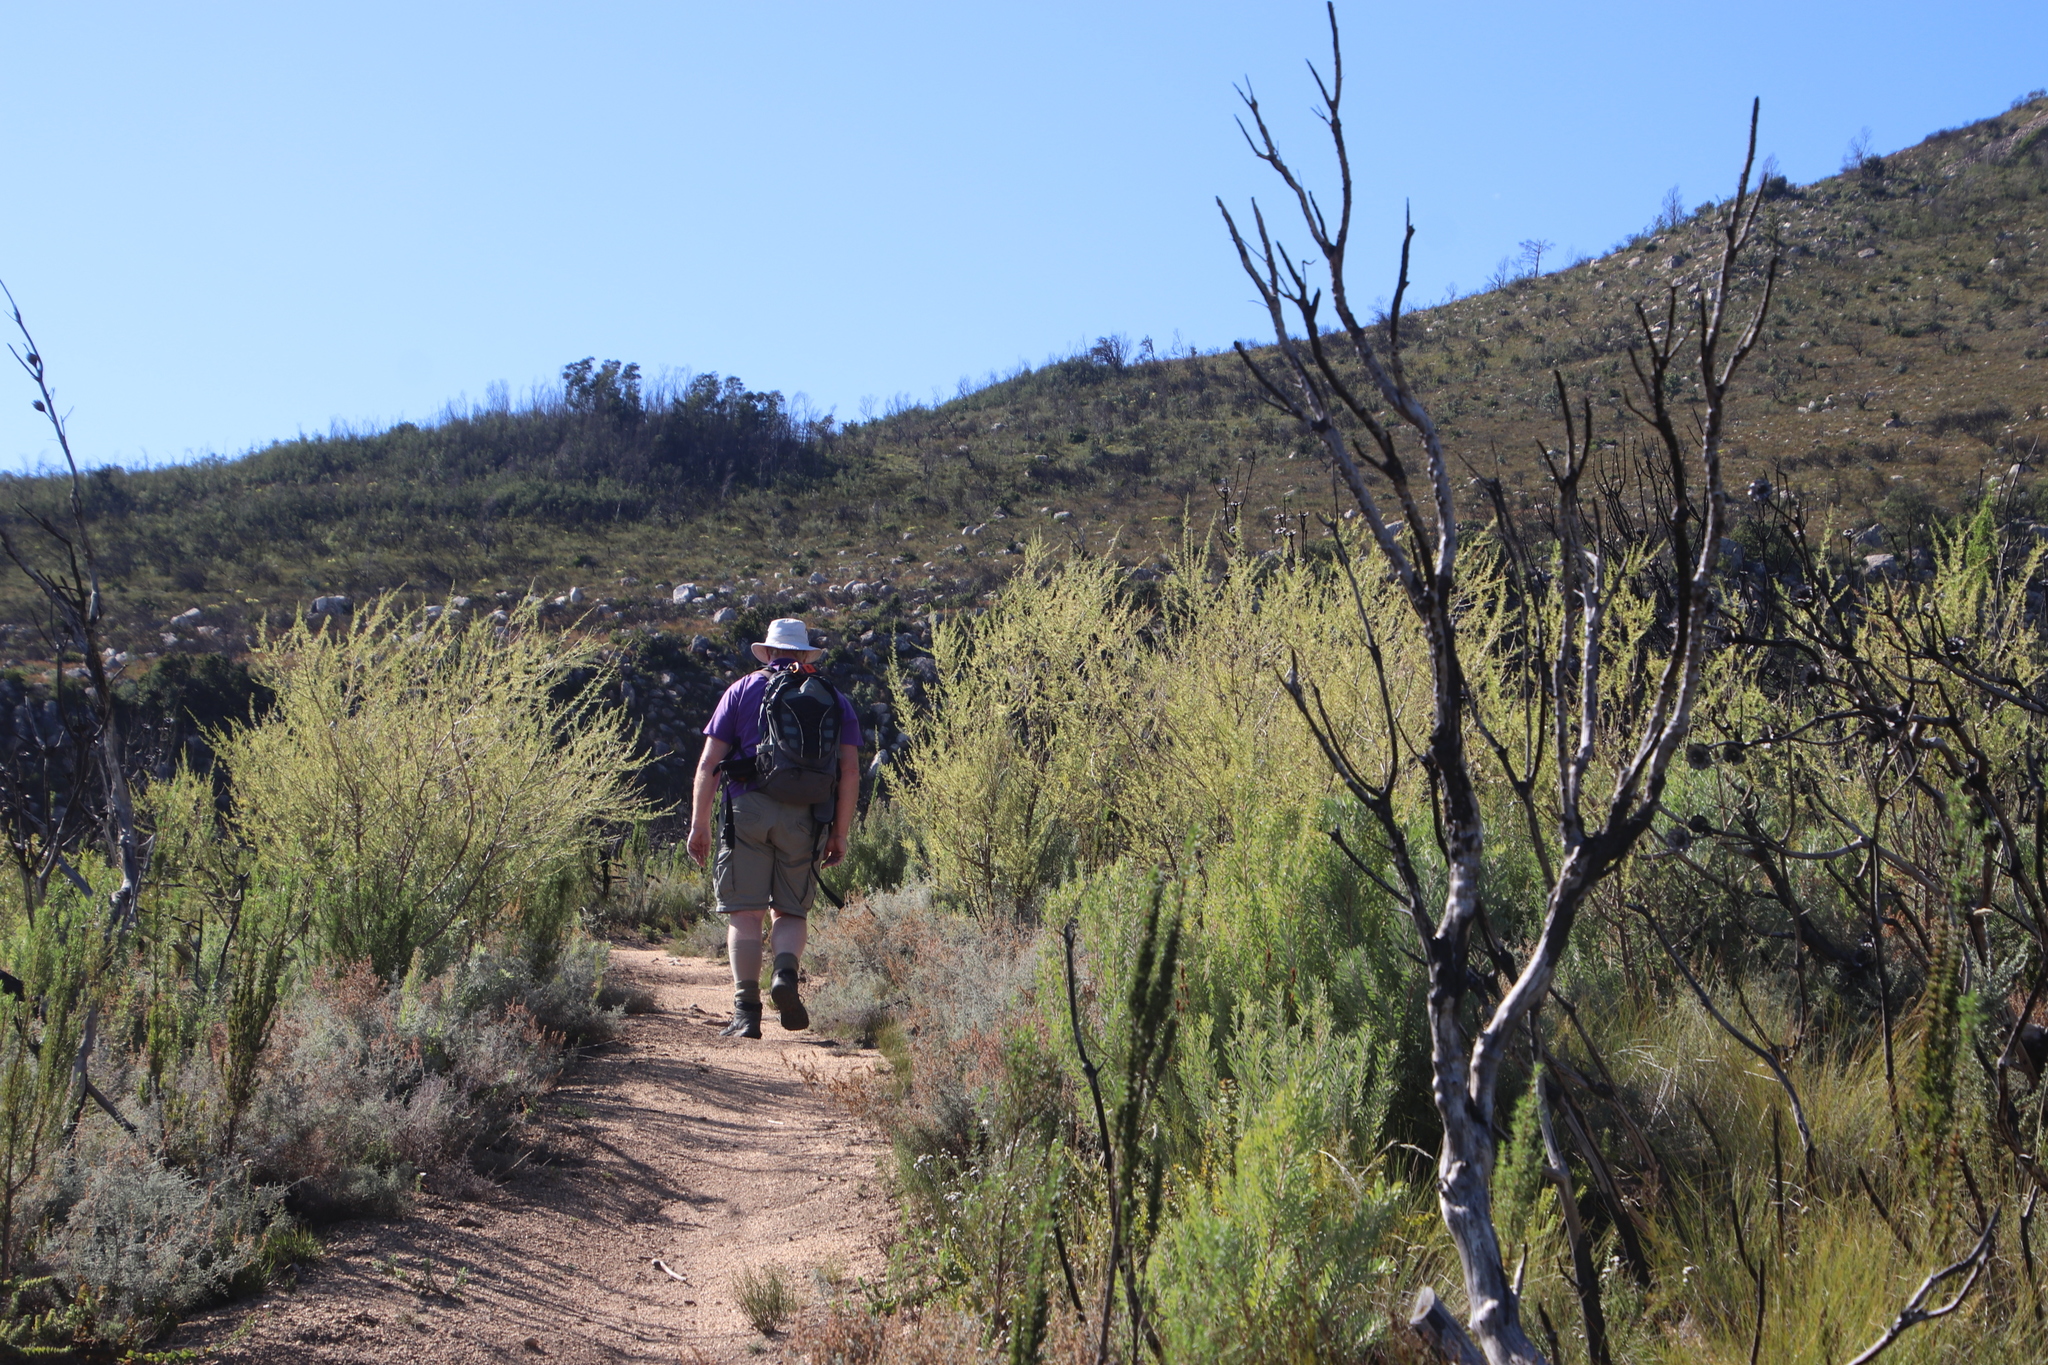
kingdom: Plantae
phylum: Tracheophyta
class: Magnoliopsida
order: Fabales
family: Fabaceae
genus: Aspalathus
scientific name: Aspalathus uniflora
